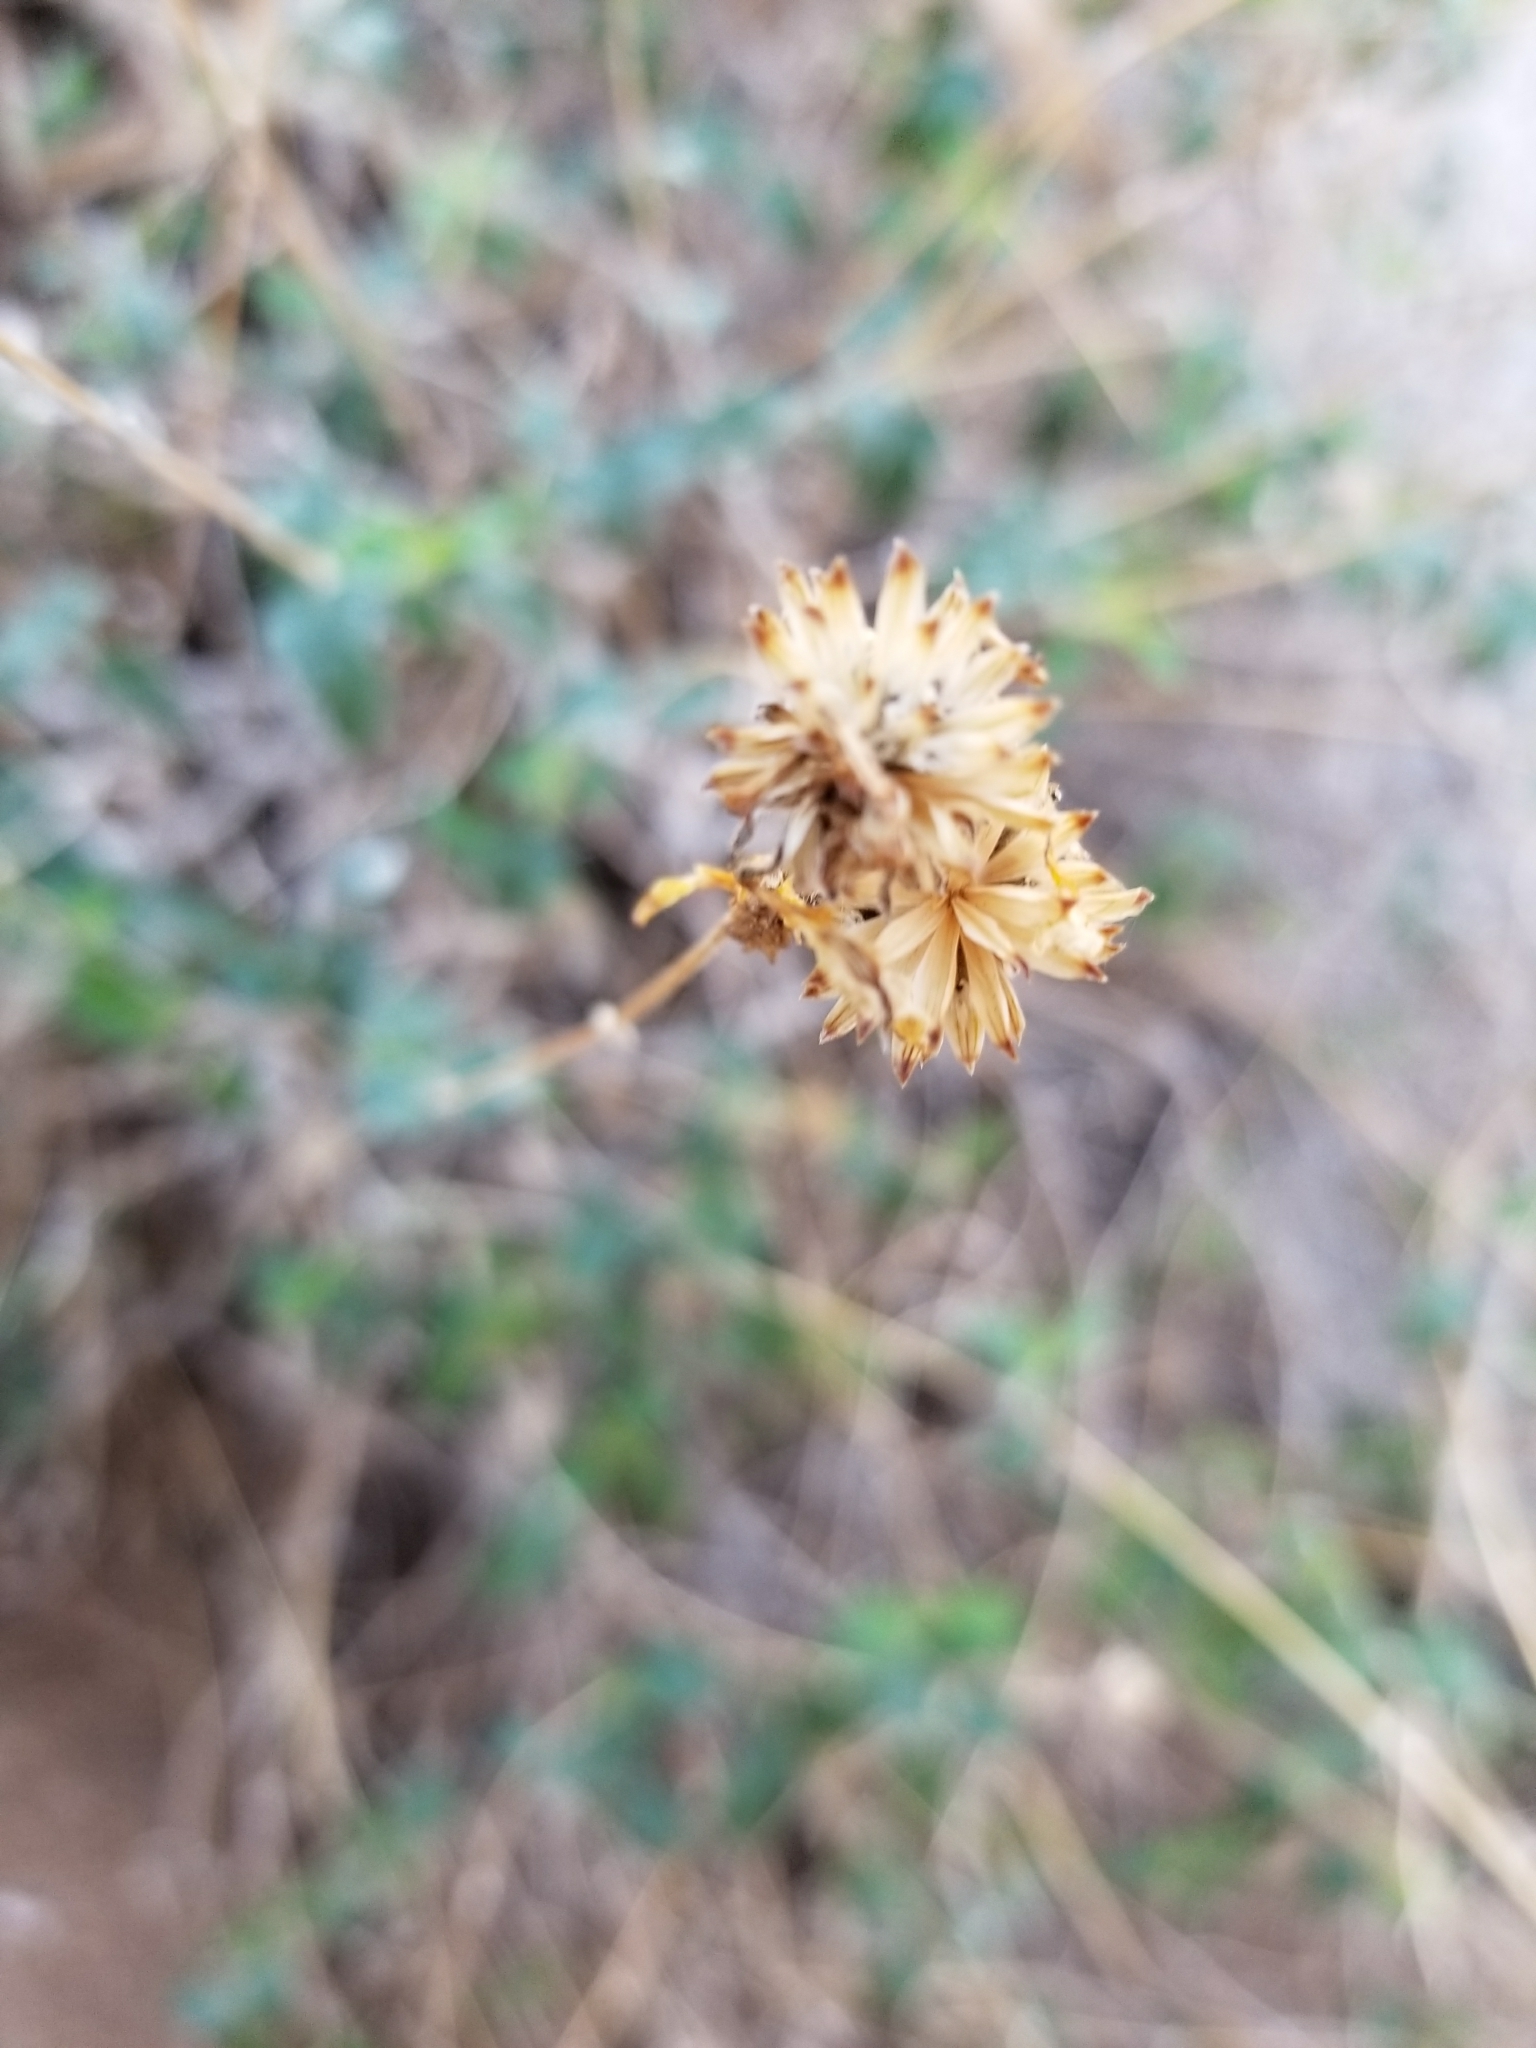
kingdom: Plantae
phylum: Tracheophyta
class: Magnoliopsida
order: Asterales
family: Asteraceae
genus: Bahiopsis
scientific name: Bahiopsis parishii
